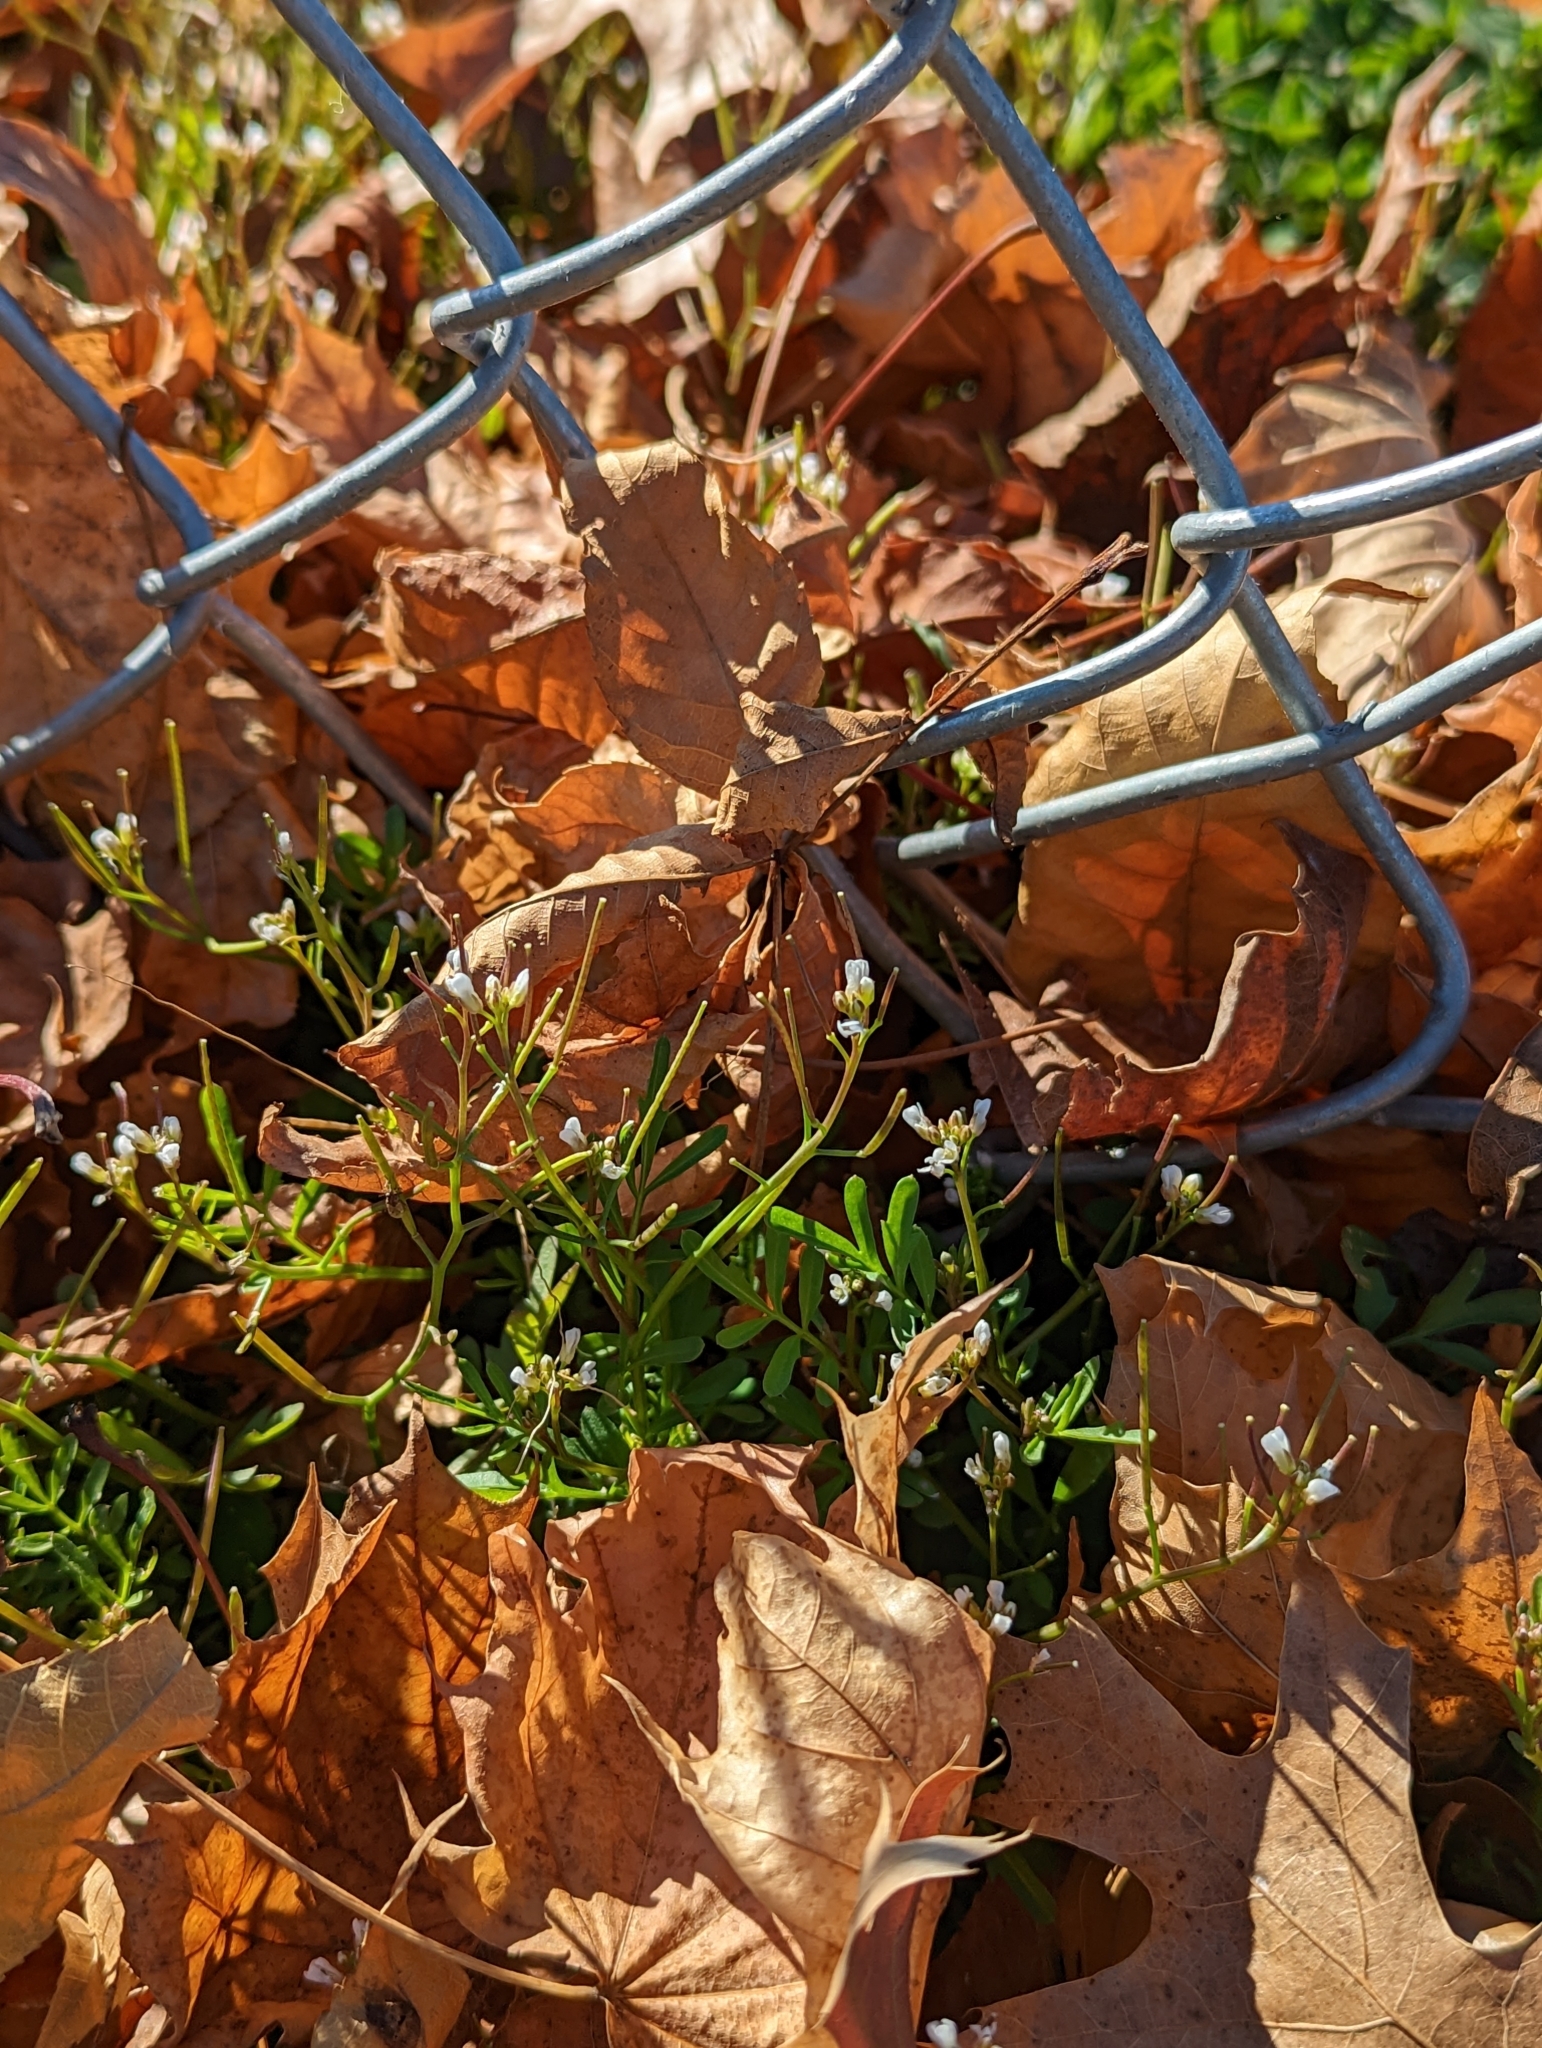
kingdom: Plantae
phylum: Tracheophyta
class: Magnoliopsida
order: Brassicales
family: Brassicaceae
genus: Cardamine
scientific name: Cardamine hirsuta
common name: Hairy bittercress
